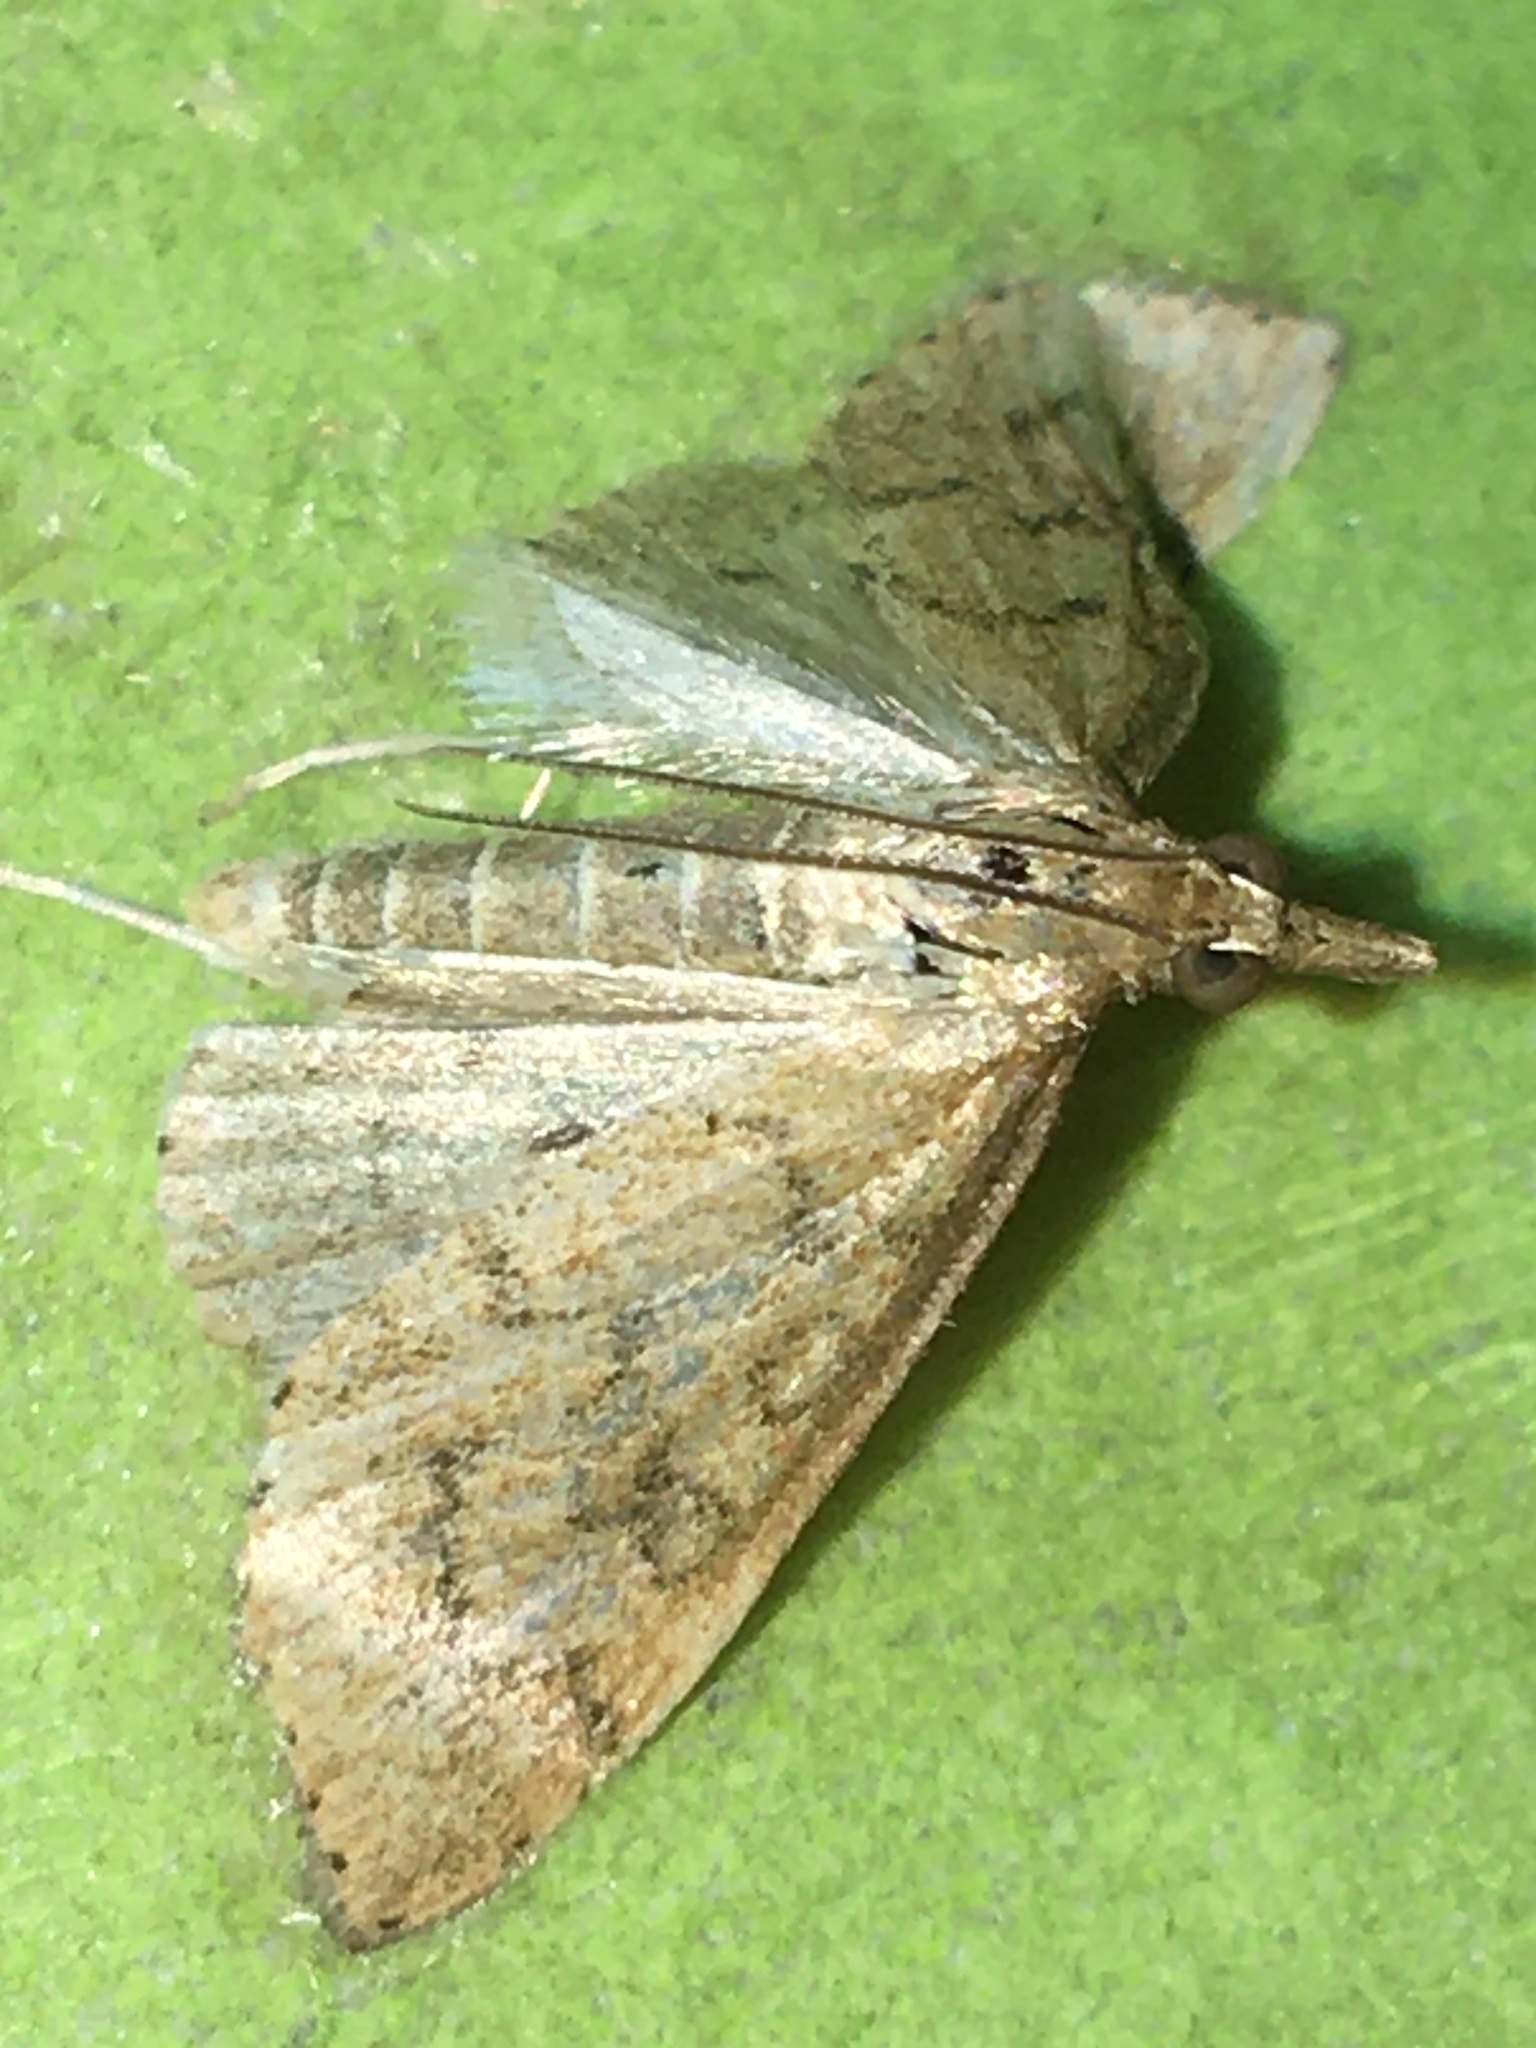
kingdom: Animalia
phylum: Arthropoda
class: Insecta
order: Lepidoptera
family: Crambidae
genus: Udea
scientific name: Udea rubigalis
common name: Celery leaftier moth
